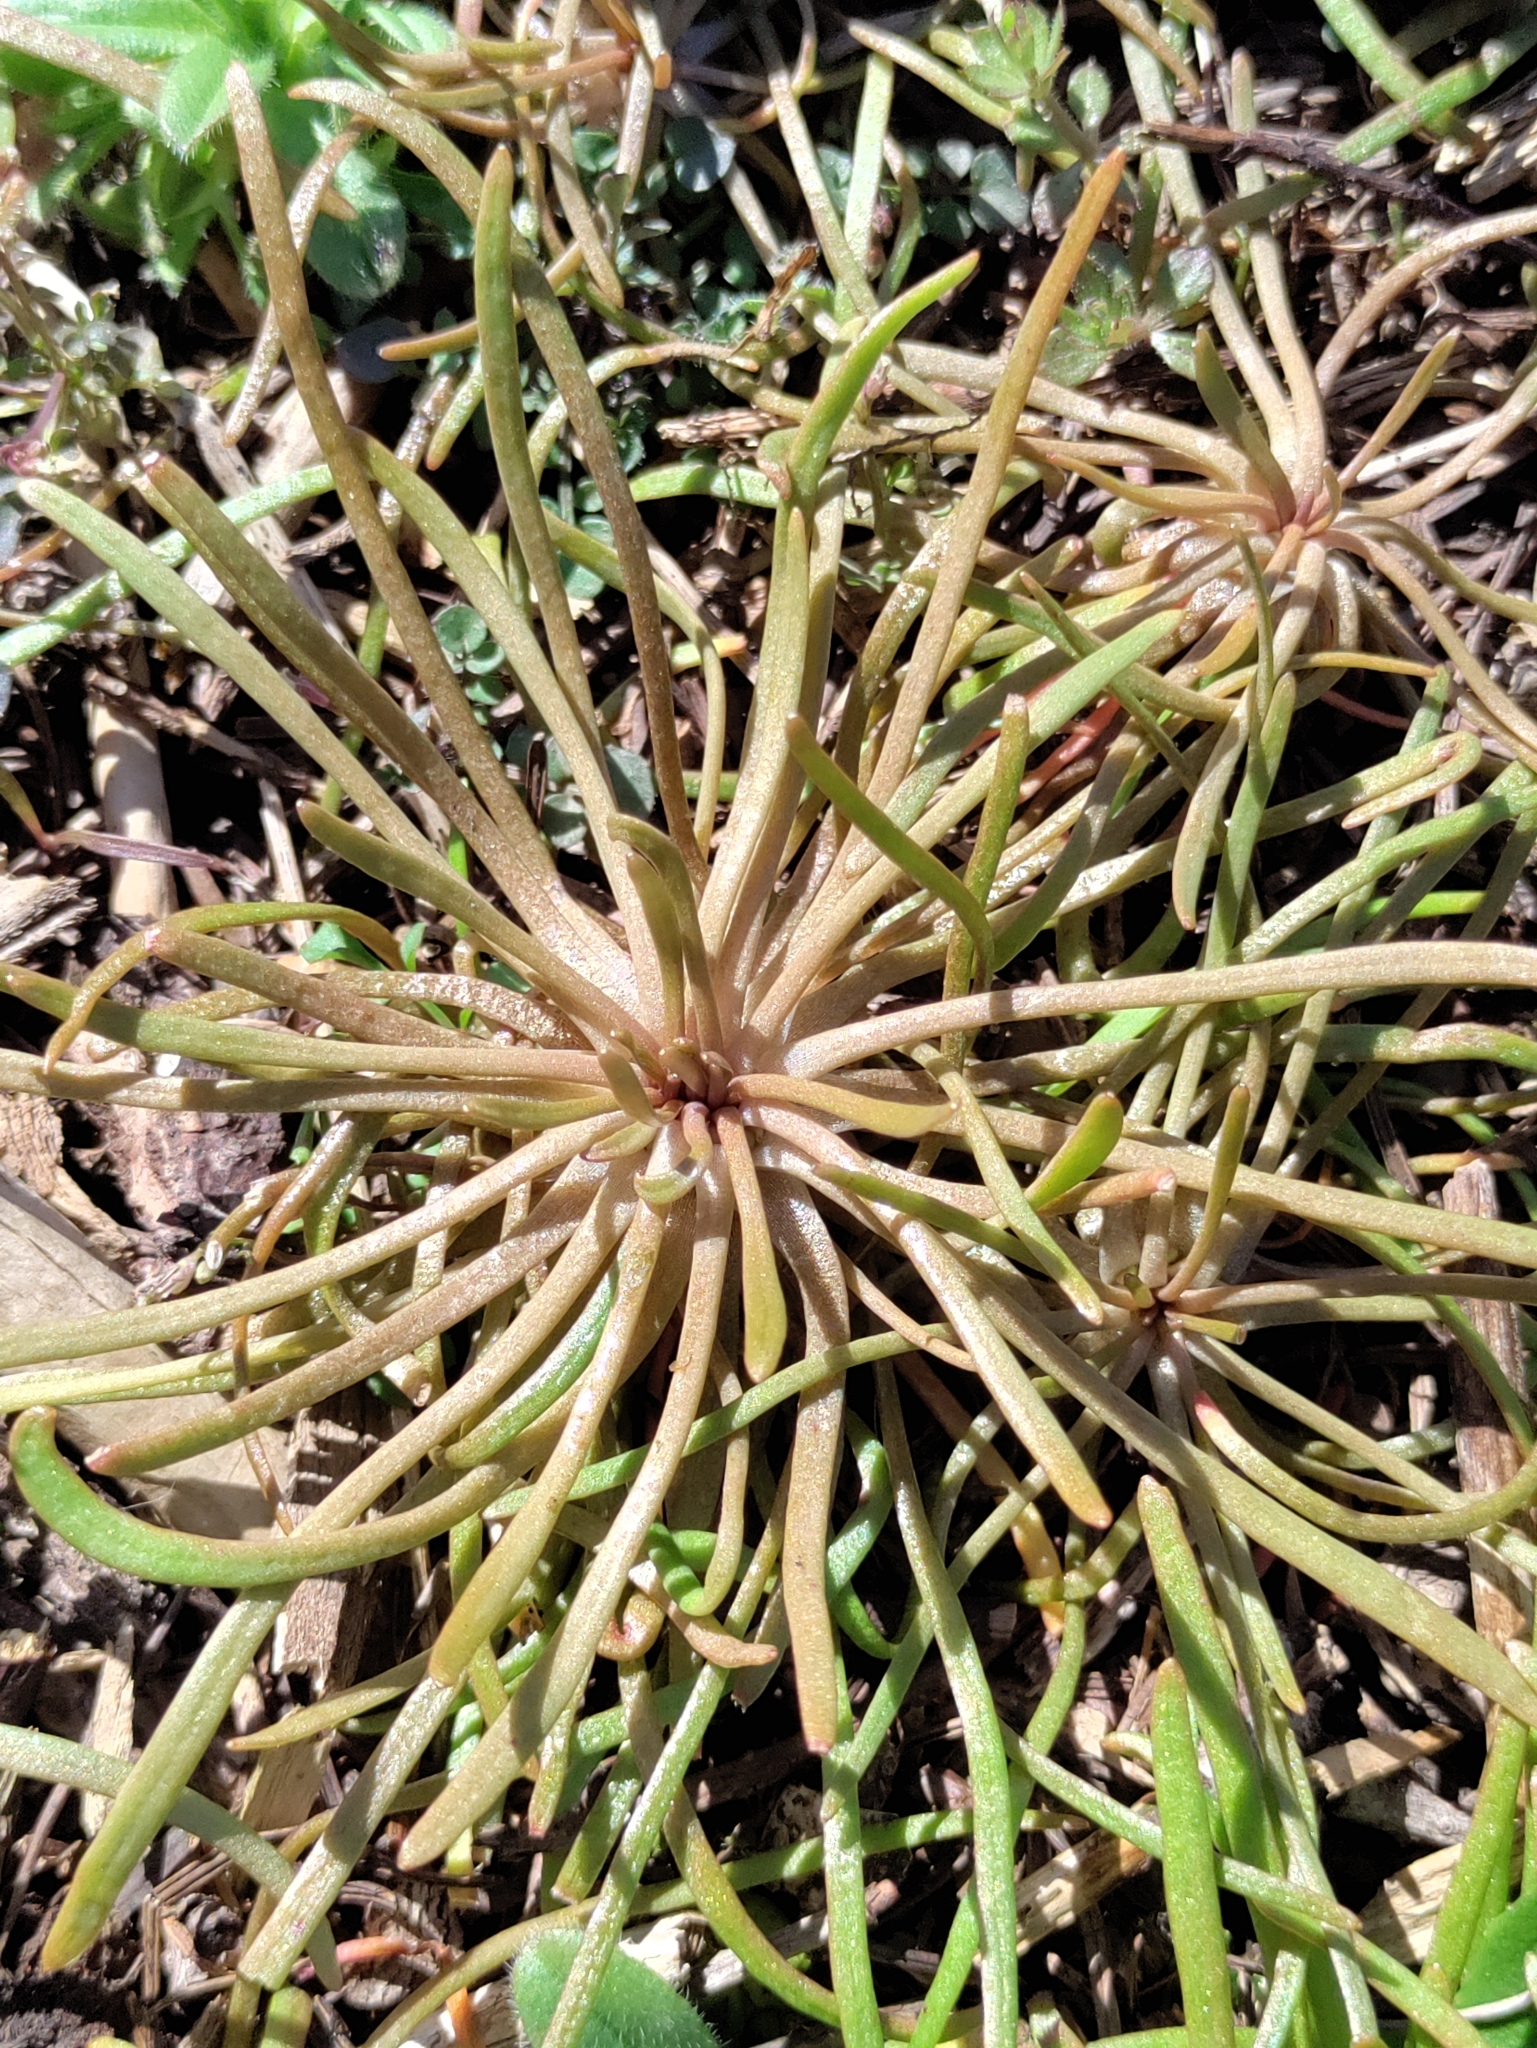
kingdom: Plantae
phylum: Tracheophyta
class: Magnoliopsida
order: Caryophyllales
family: Montiaceae
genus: Claytonia
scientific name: Claytonia parviflora
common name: Indian-lettuce
